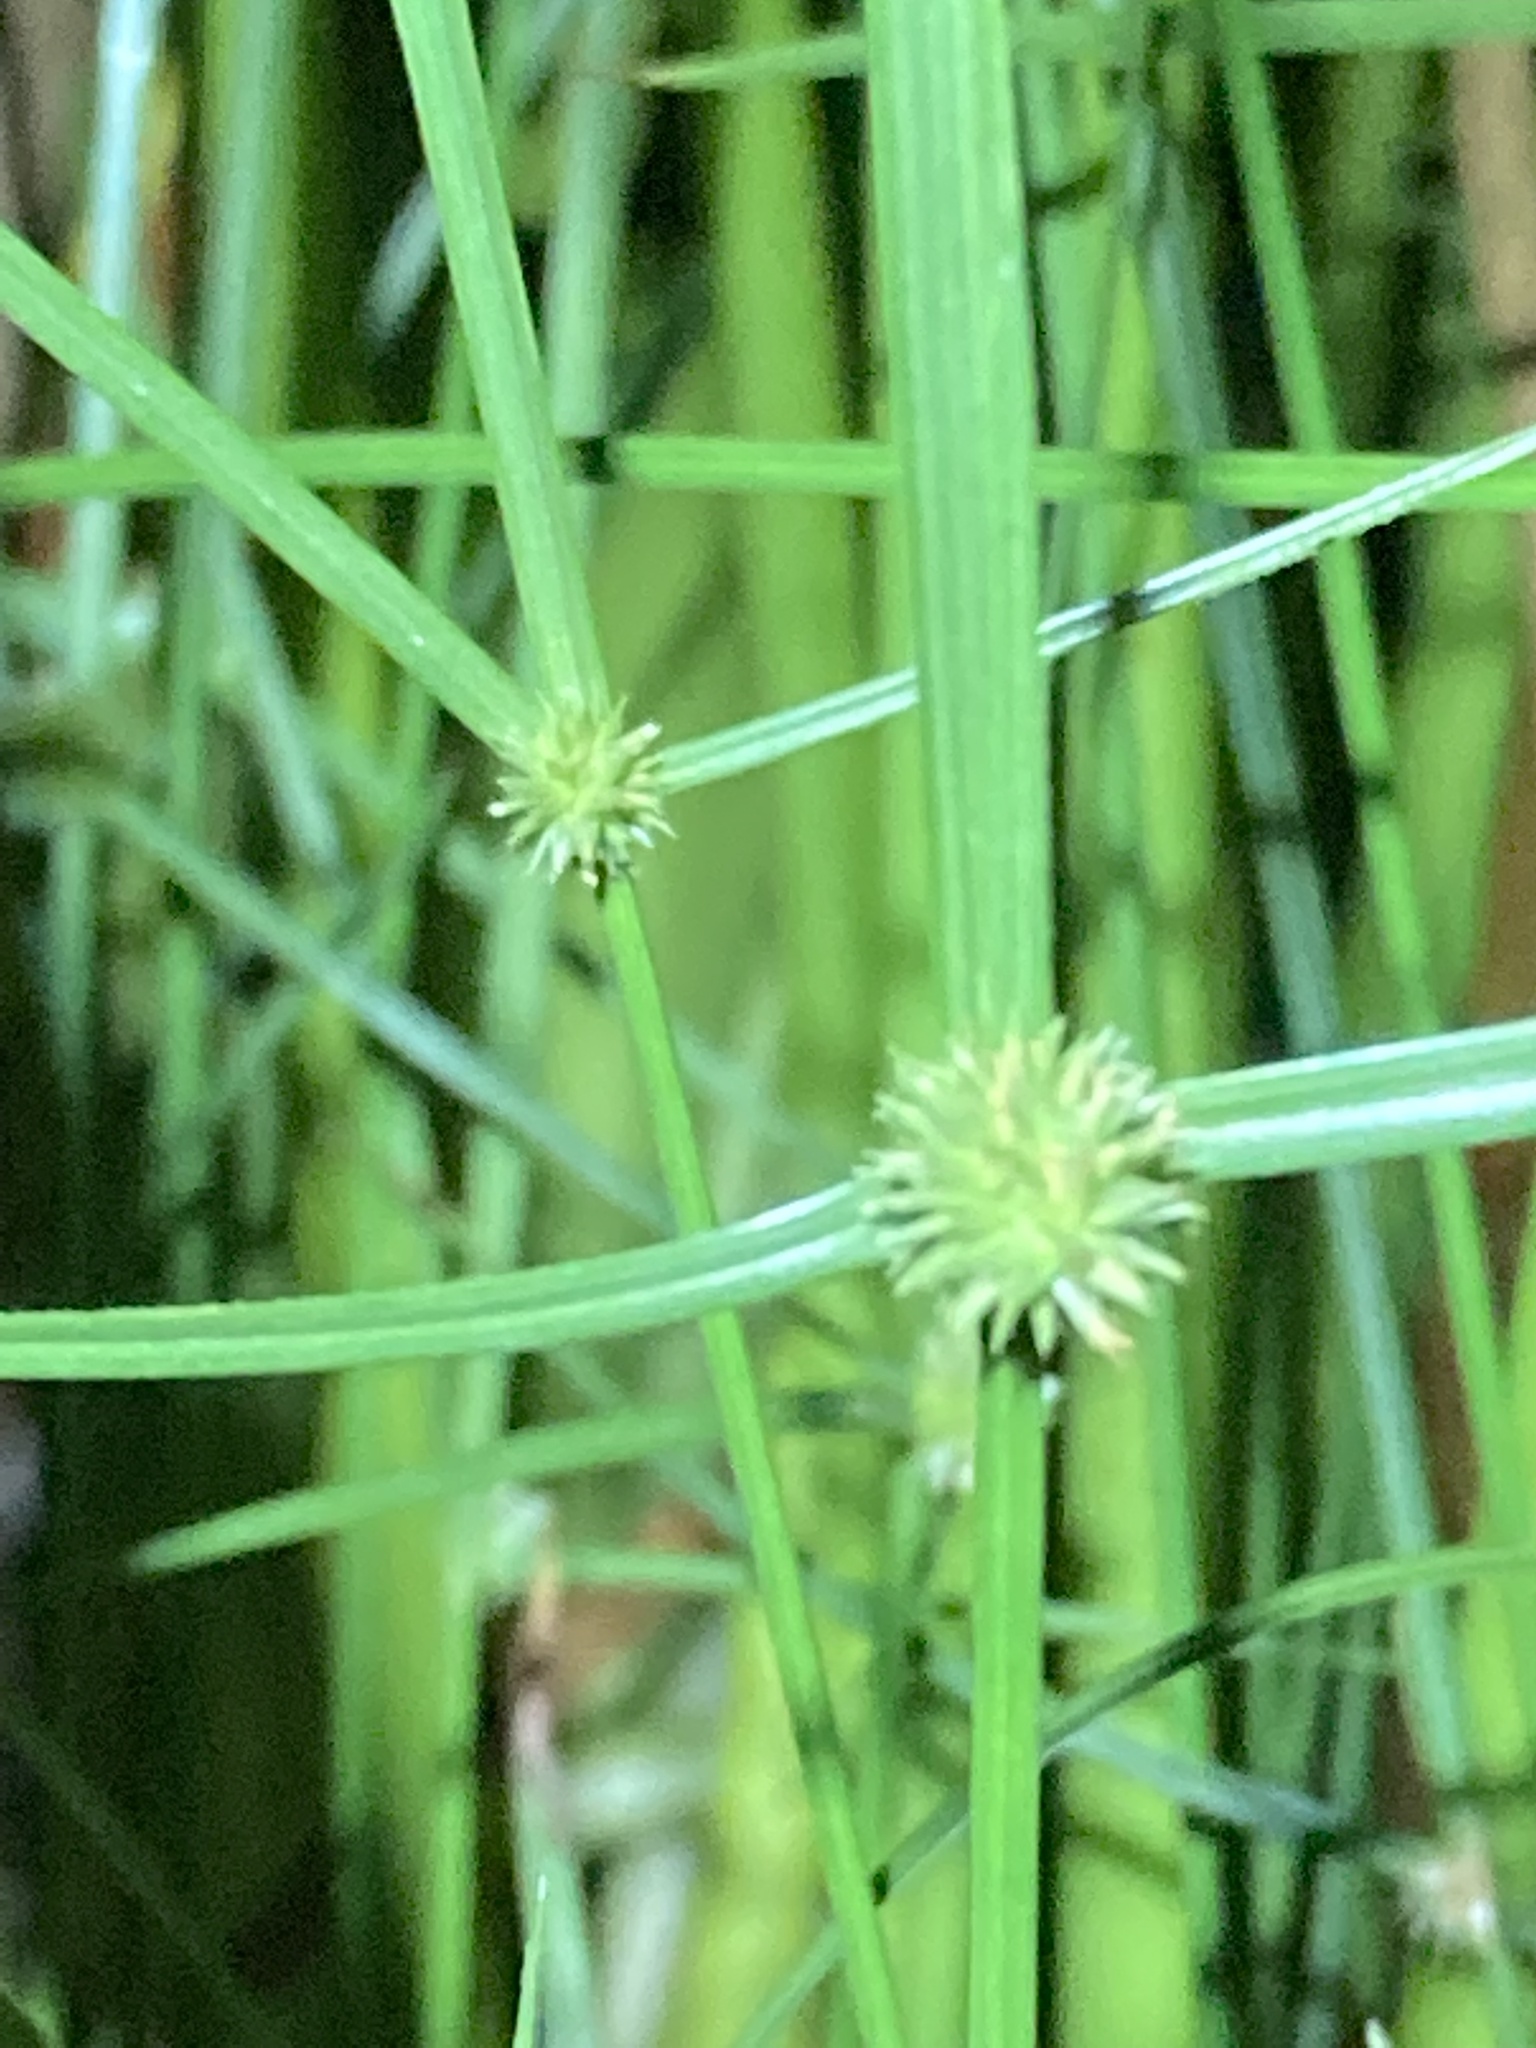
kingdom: Plantae
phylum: Tracheophyta
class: Liliopsida
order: Poales
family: Cyperaceae
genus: Cyperus
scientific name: Cyperus brevifolius
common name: Globe kyllinga
